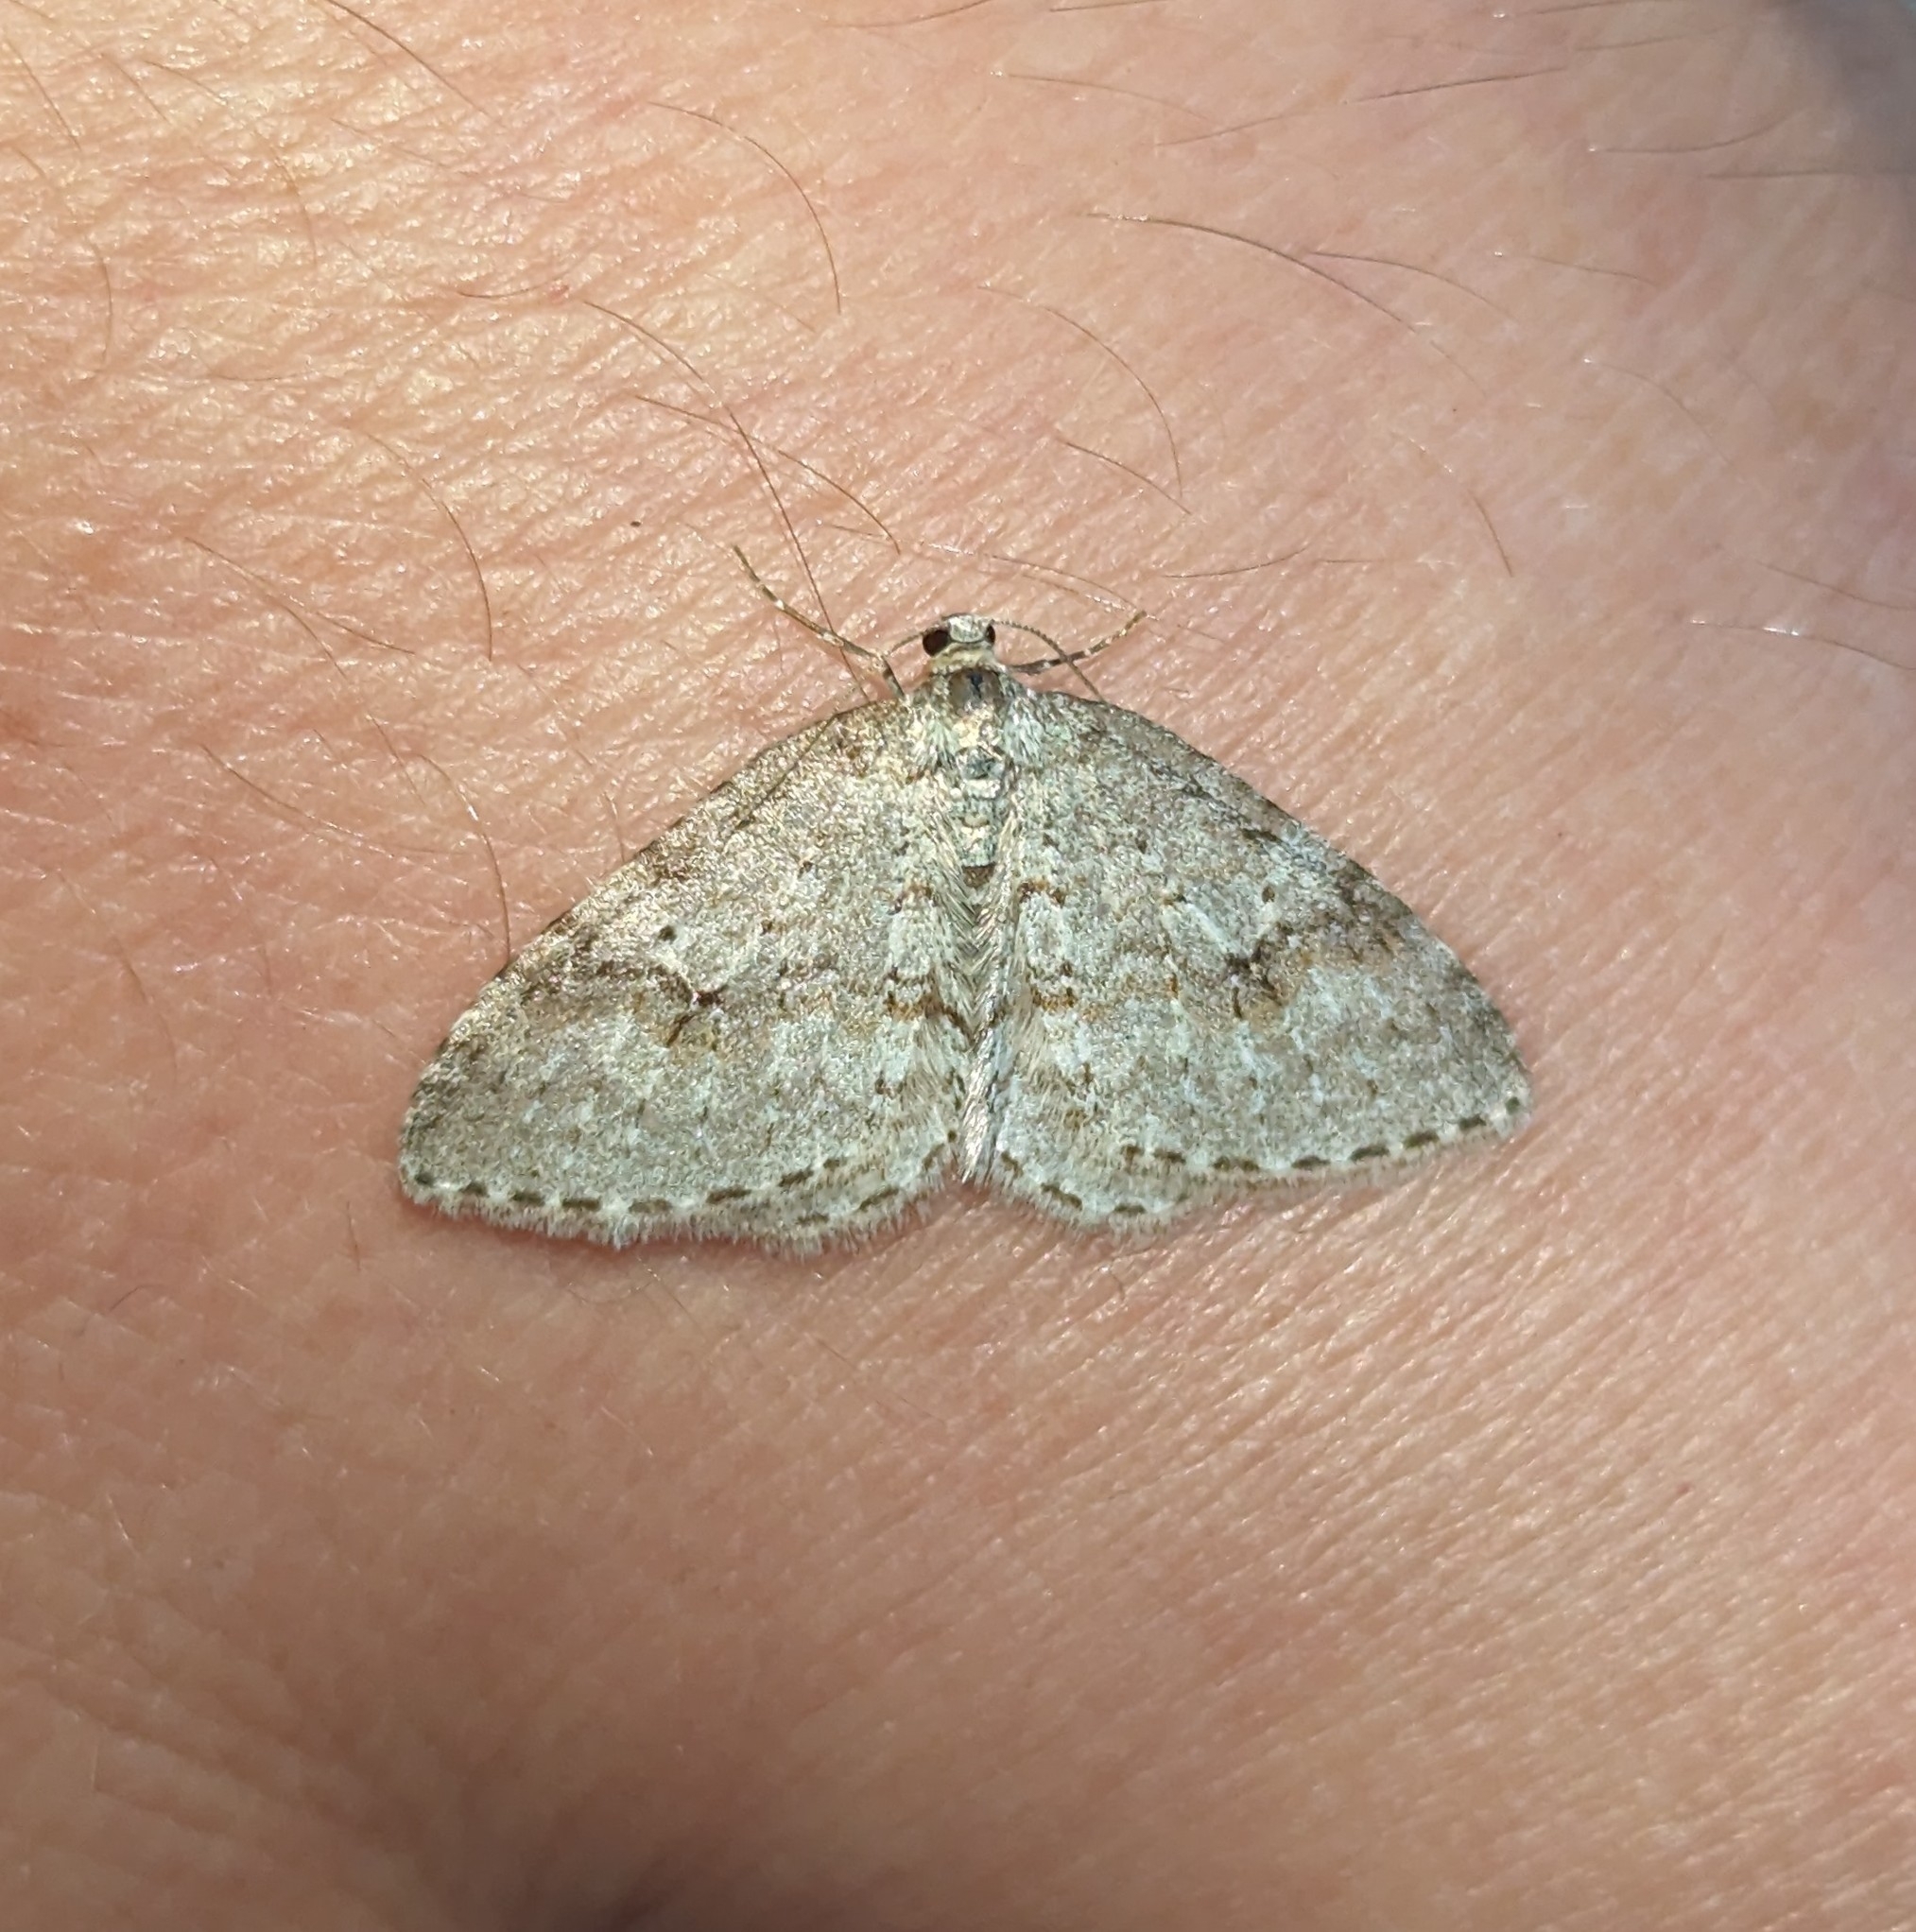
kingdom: Animalia
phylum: Arthropoda
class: Insecta
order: Lepidoptera
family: Geometridae
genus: Venusia
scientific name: Venusia pearsalli
